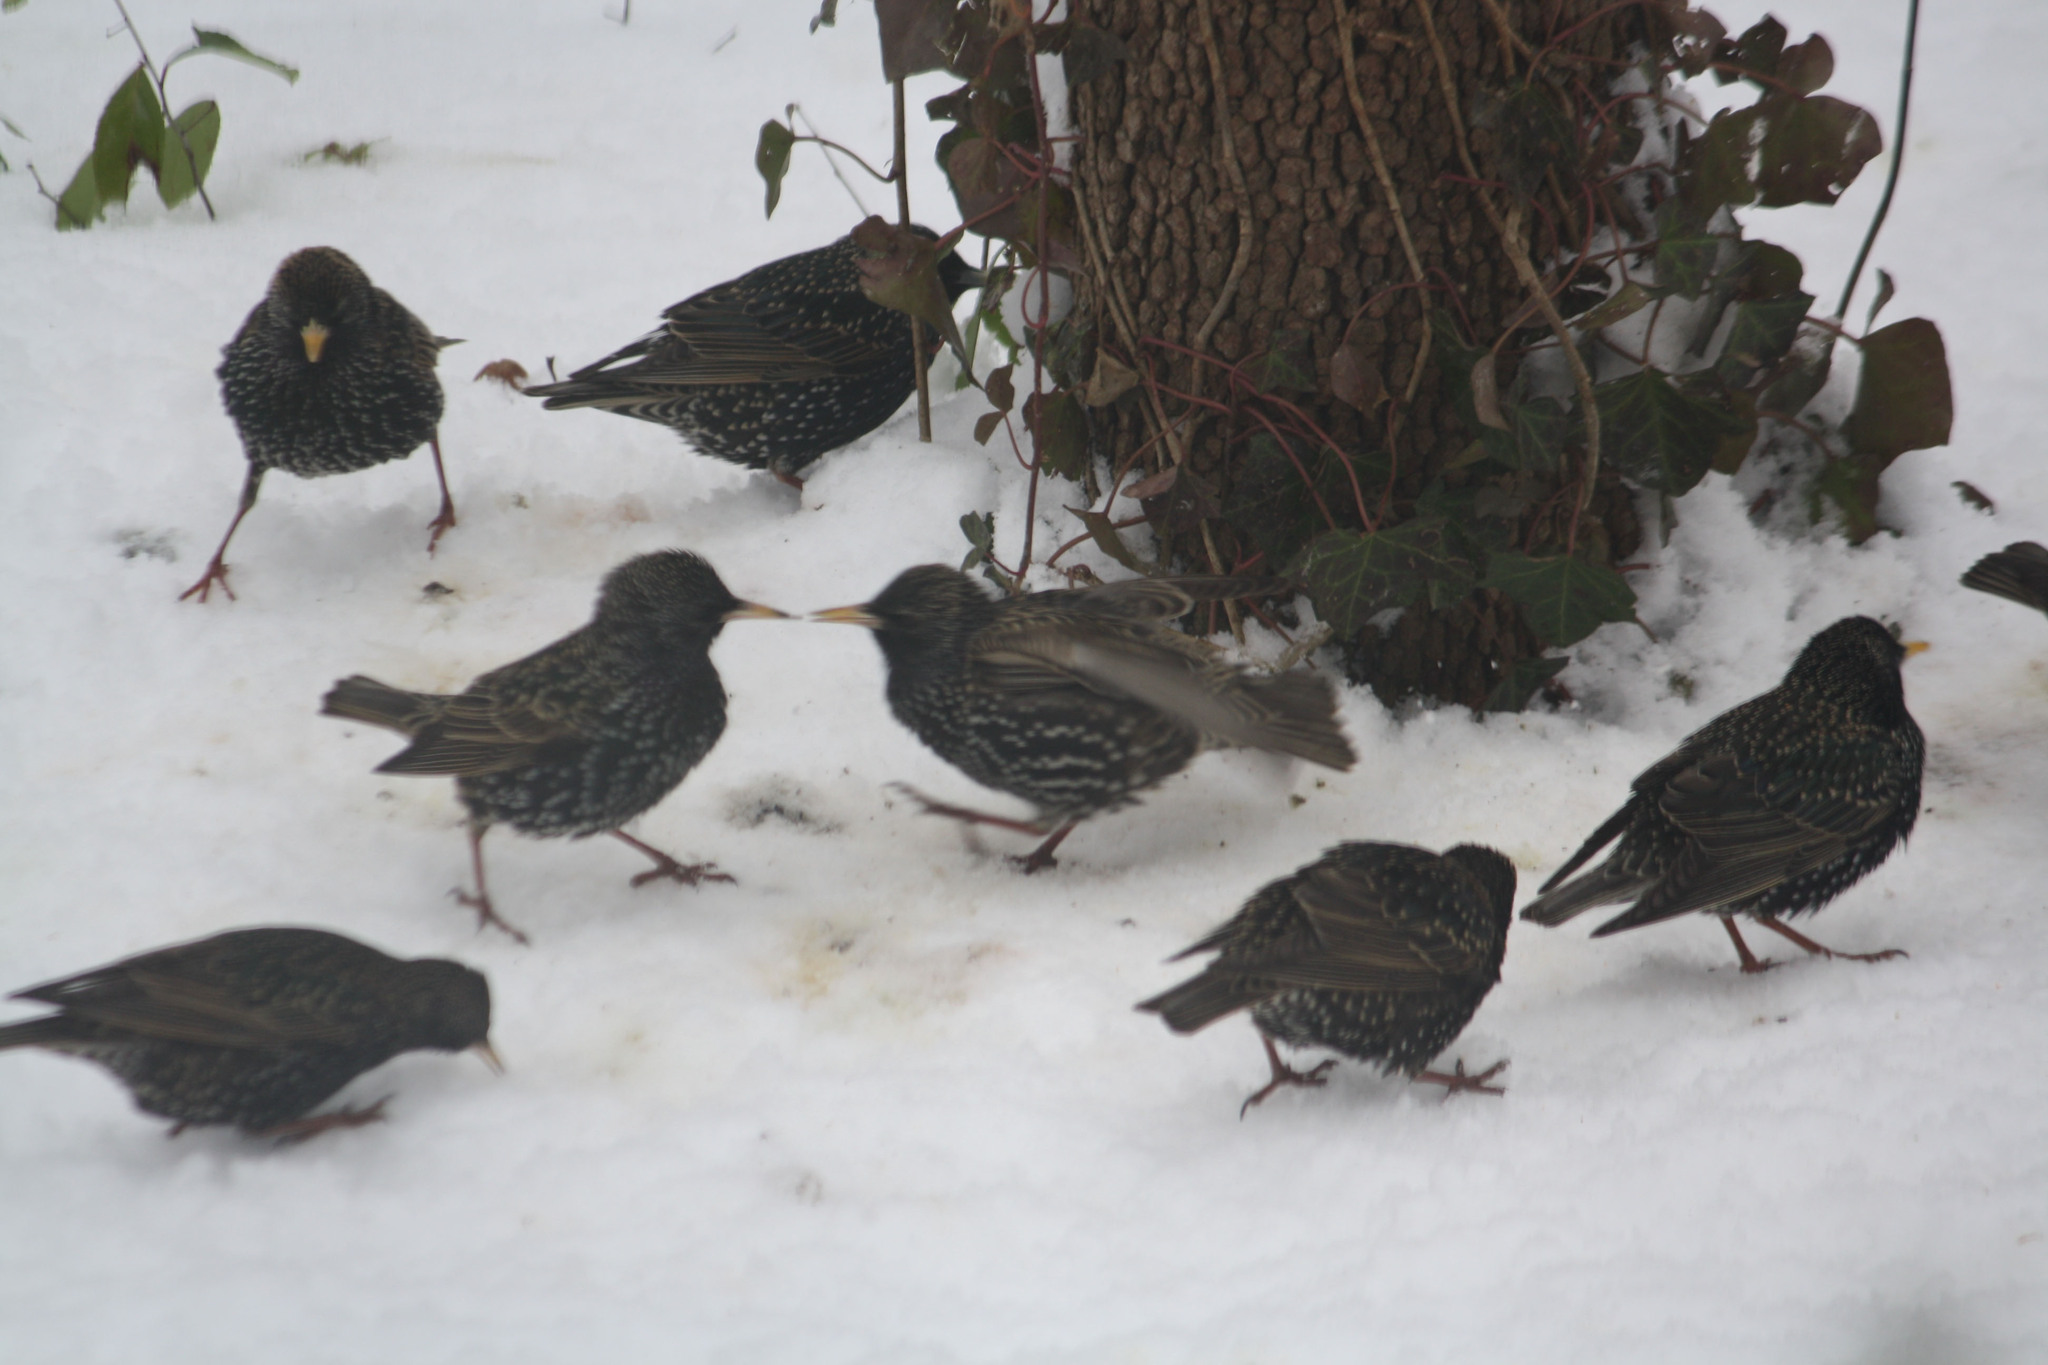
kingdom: Animalia
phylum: Chordata
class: Aves
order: Passeriformes
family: Sturnidae
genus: Sturnus
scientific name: Sturnus vulgaris
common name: Common starling
